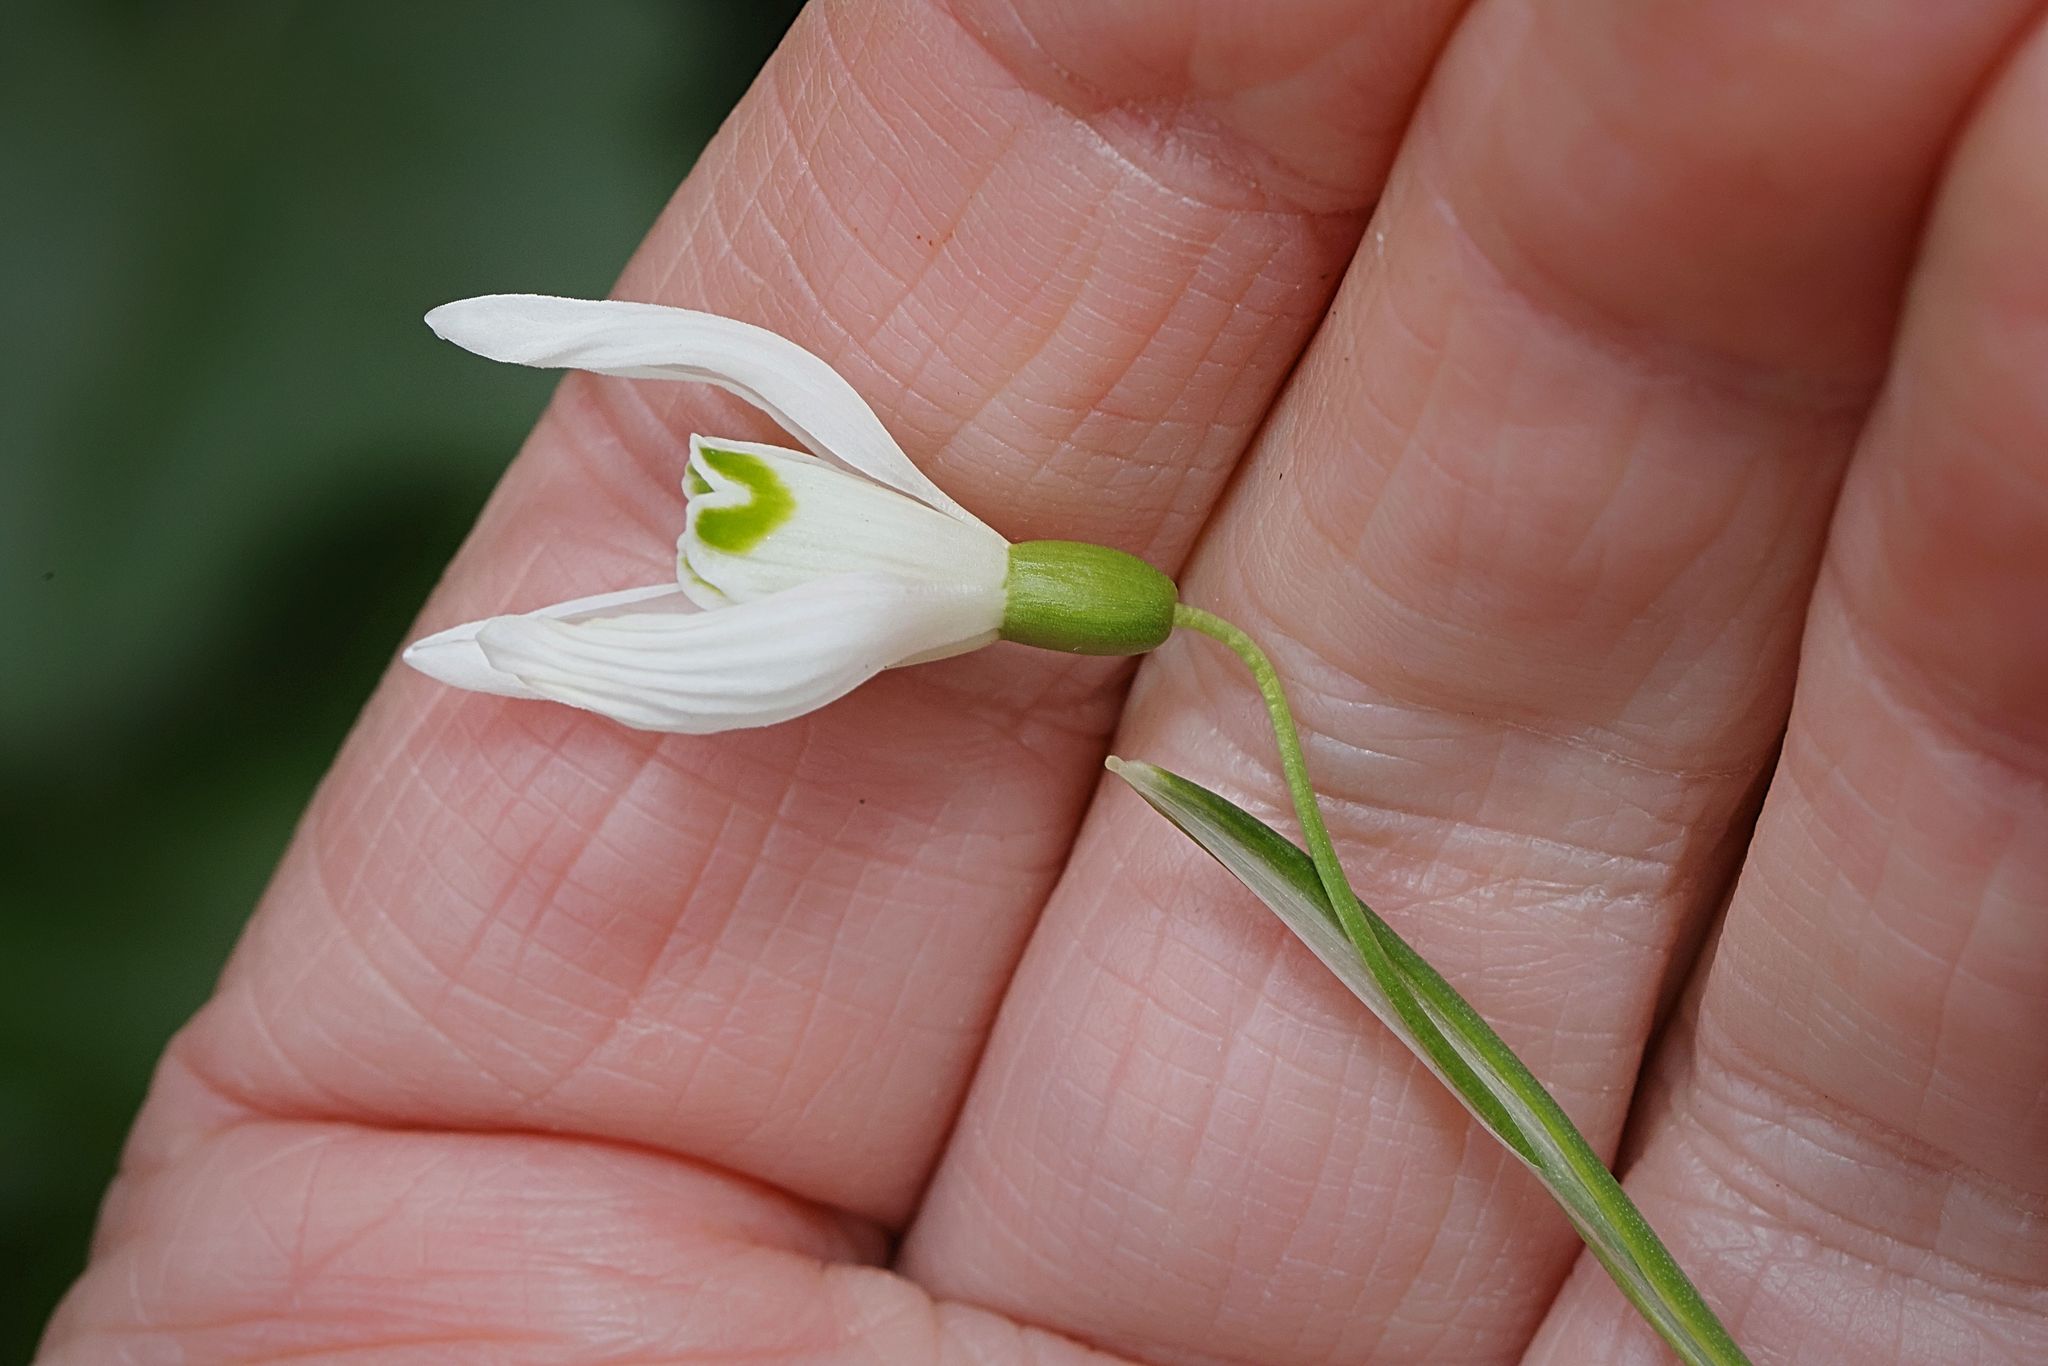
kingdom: Plantae
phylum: Tracheophyta
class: Liliopsida
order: Asparagales
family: Amaryllidaceae
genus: Galanthus
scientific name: Galanthus nivalis
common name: Snowdrop
